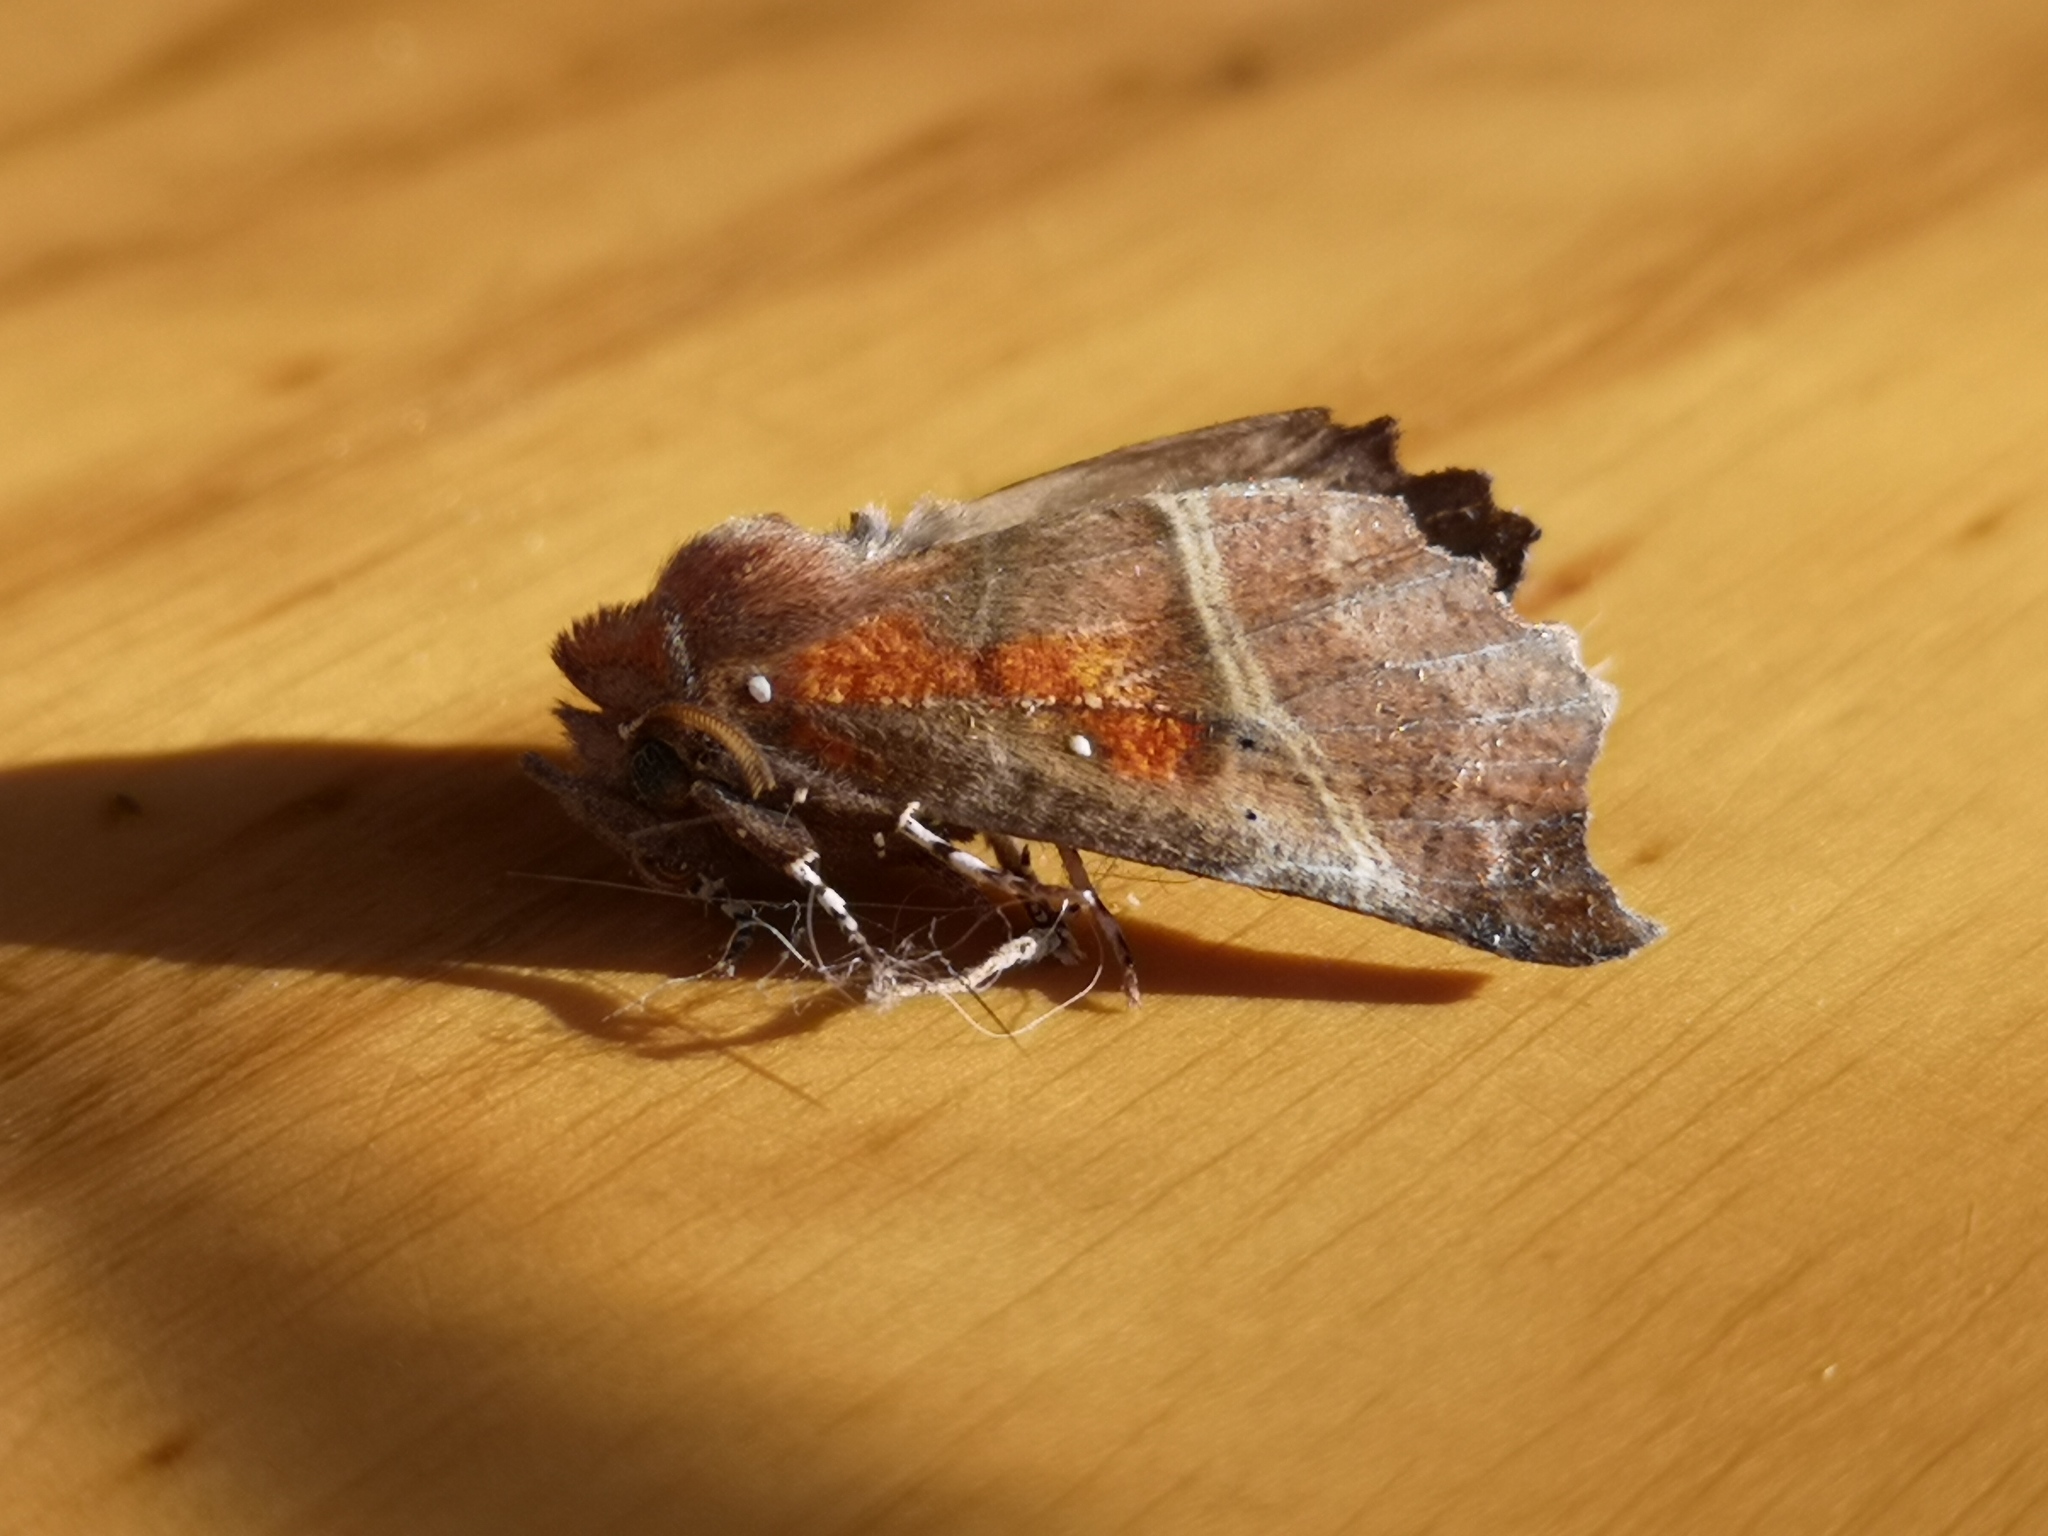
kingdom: Animalia
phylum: Arthropoda
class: Insecta
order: Lepidoptera
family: Erebidae
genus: Scoliopteryx
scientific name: Scoliopteryx libatrix
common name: Herald
